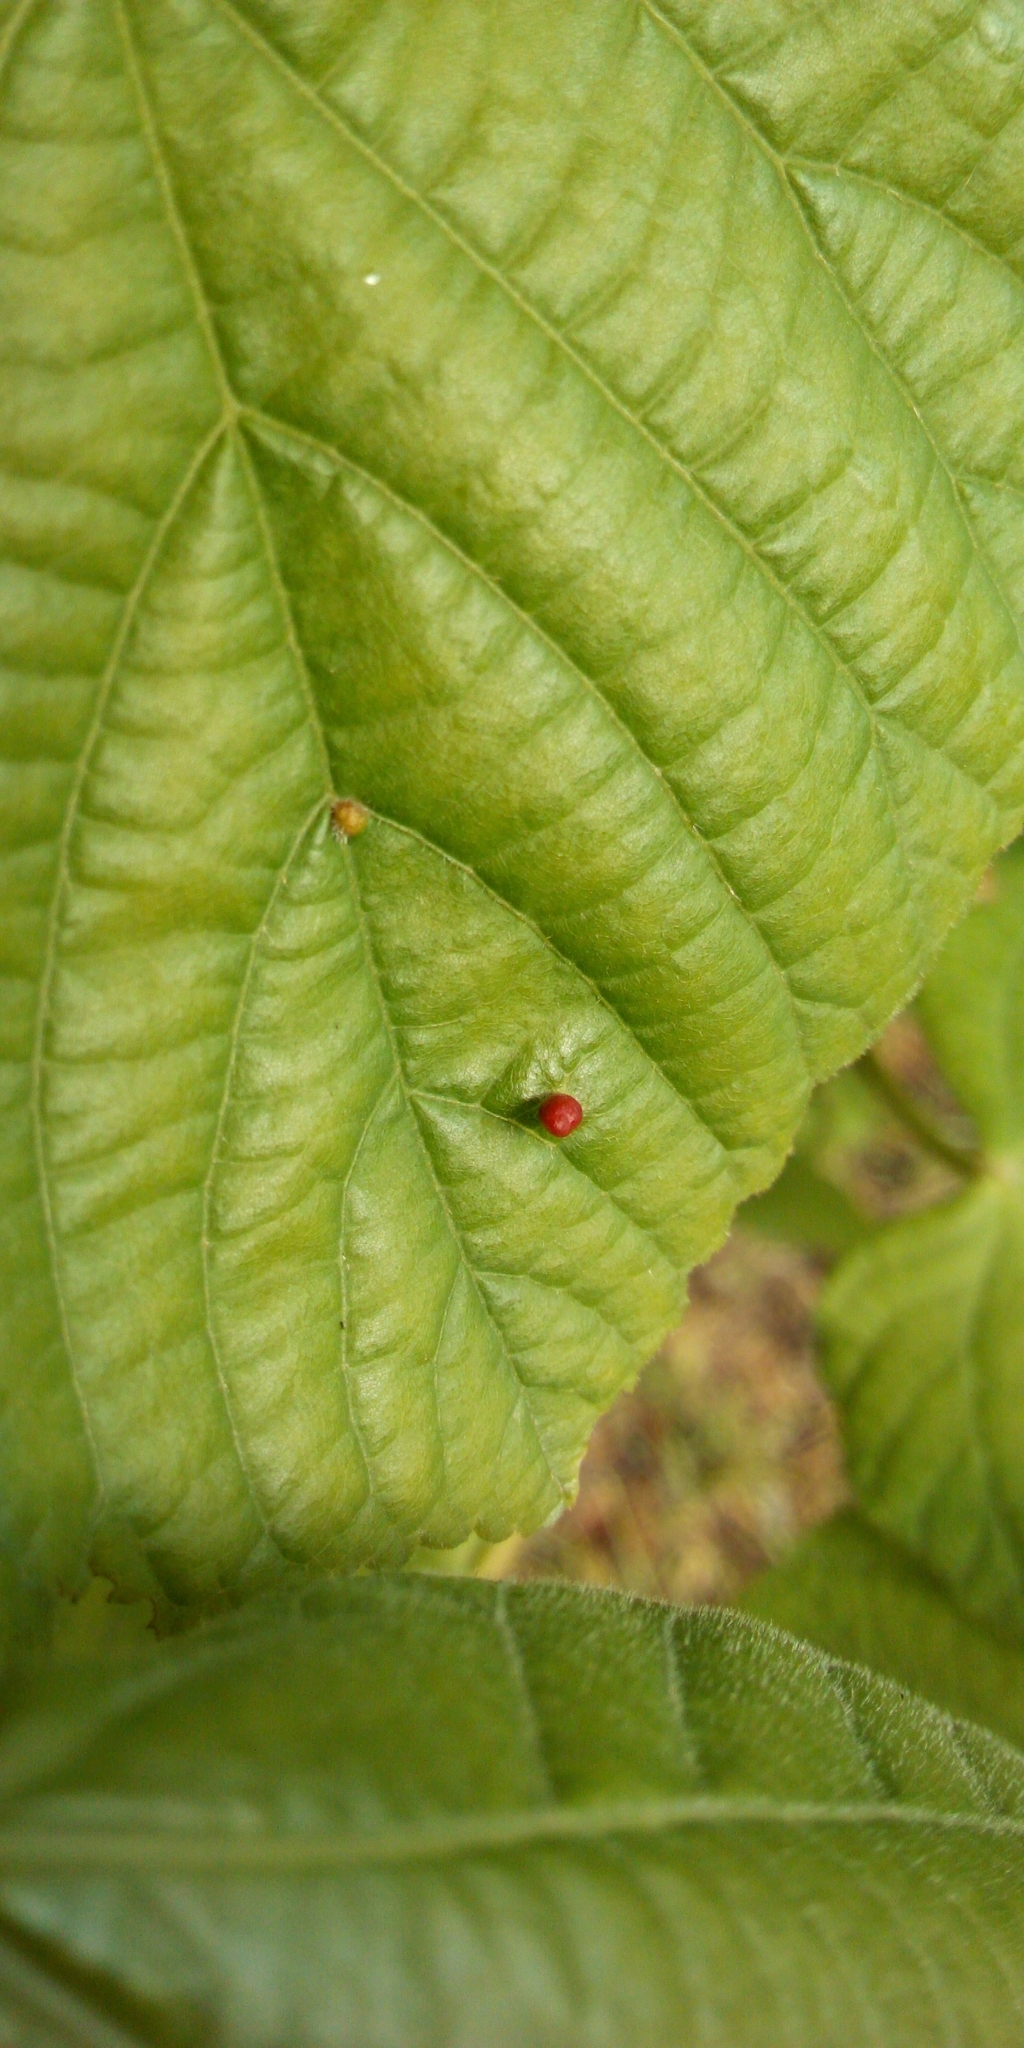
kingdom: Animalia
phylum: Arthropoda
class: Arachnida
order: Trombidiformes
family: Eriophyidae
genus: Eriophyes
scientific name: Eriophyes tiliae
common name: Red nail gall mite
